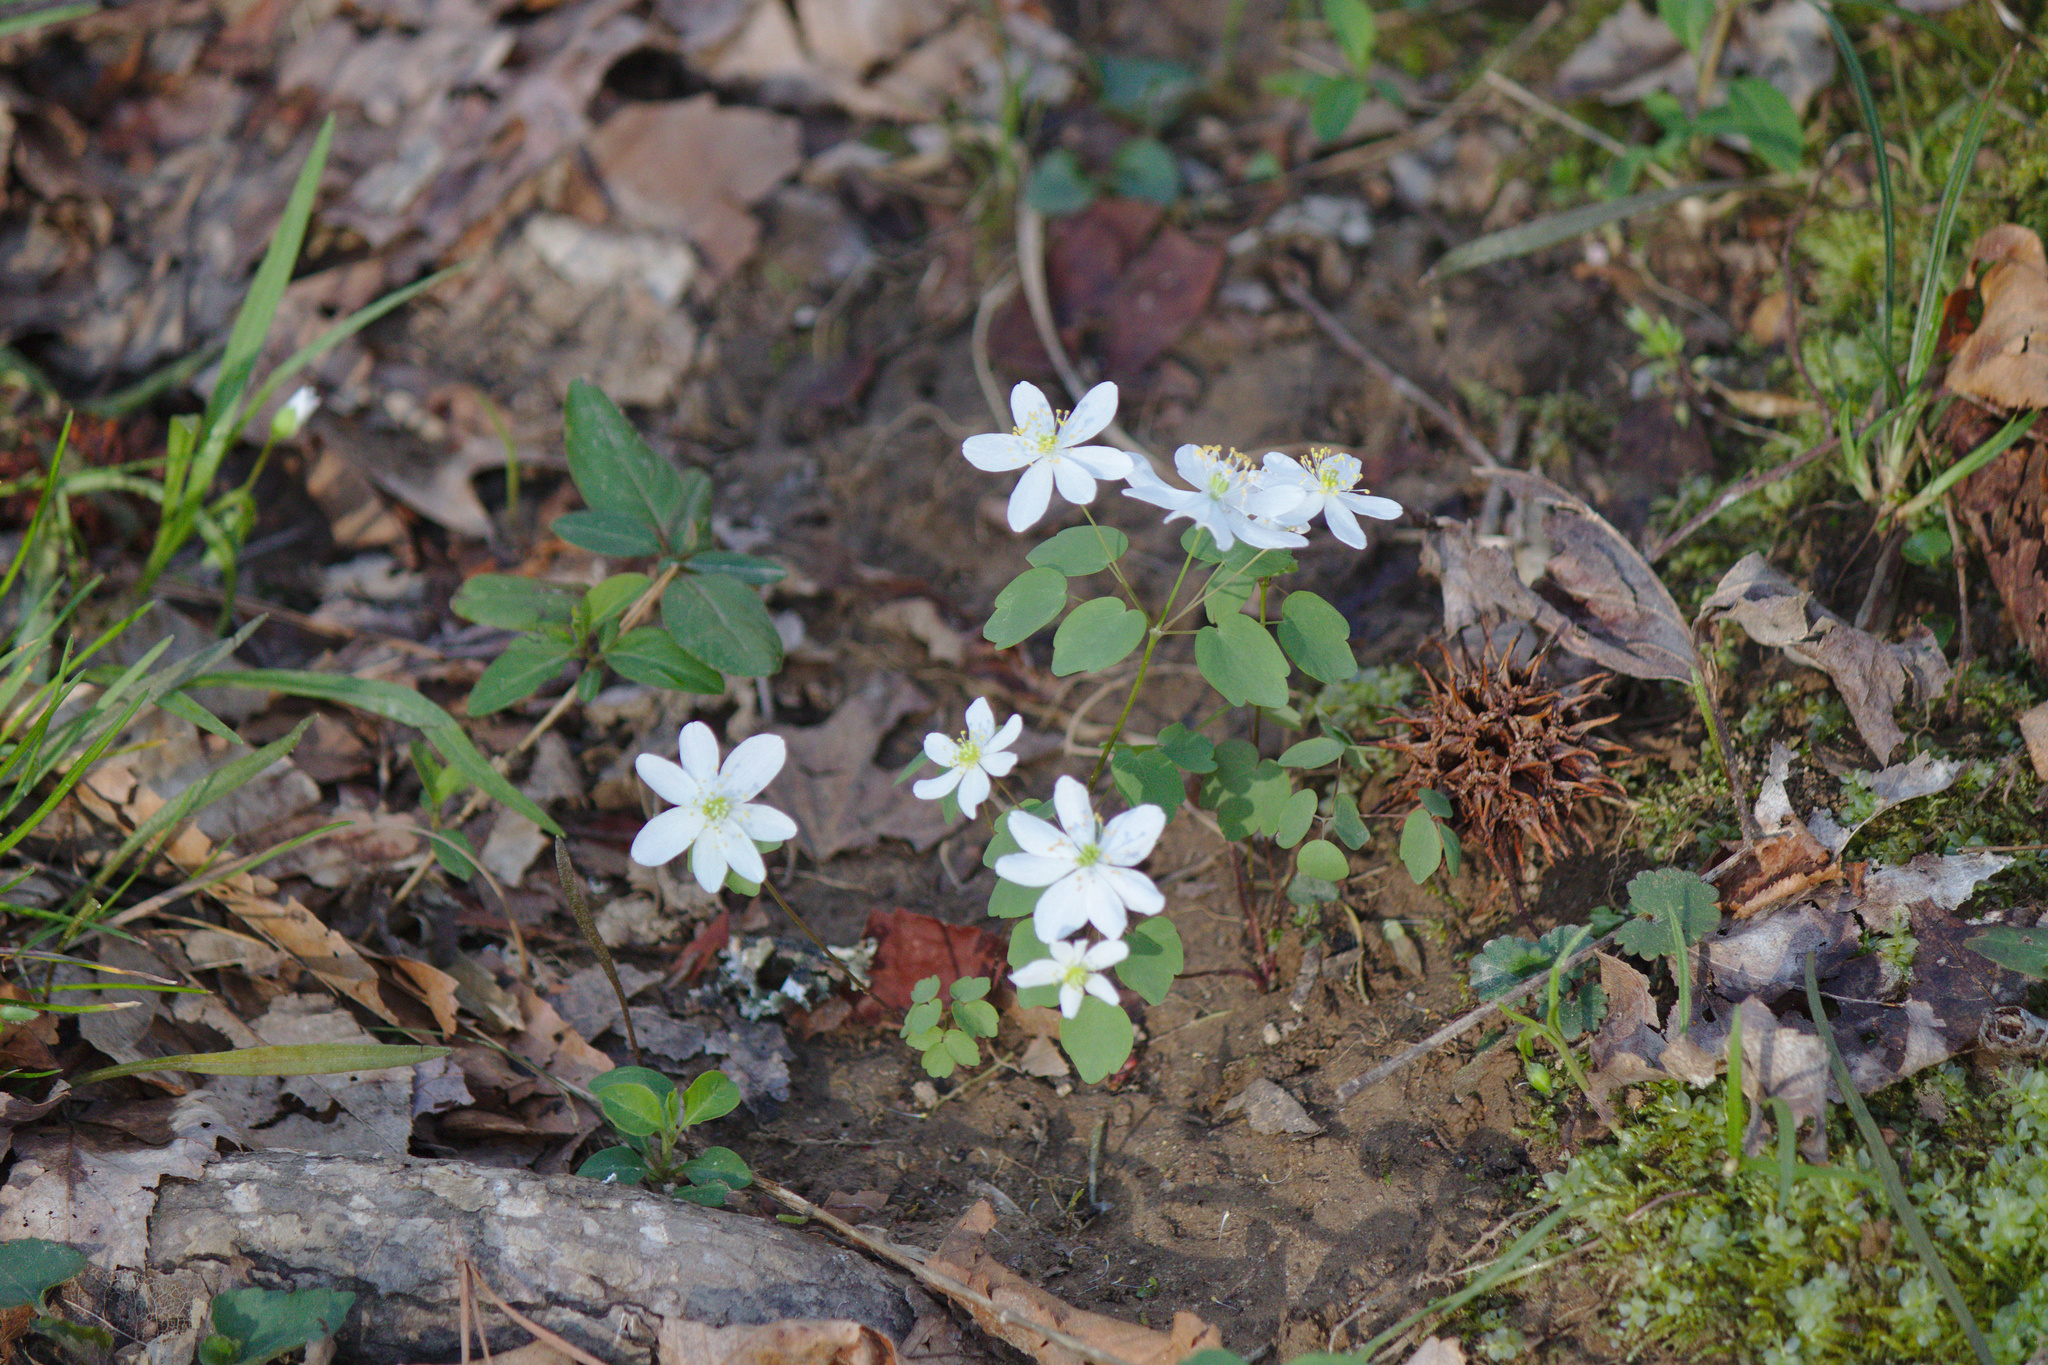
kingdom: Plantae
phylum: Tracheophyta
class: Magnoliopsida
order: Ranunculales
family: Ranunculaceae
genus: Thalictrum
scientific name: Thalictrum thalictroides
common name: Rue-anemone
